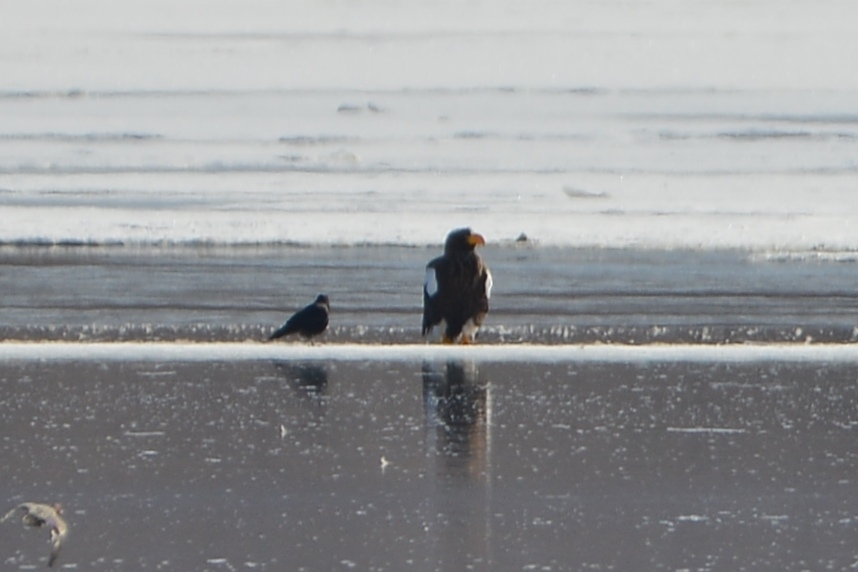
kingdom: Animalia
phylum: Chordata
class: Aves
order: Accipitriformes
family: Accipitridae
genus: Haliaeetus
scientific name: Haliaeetus pelagicus
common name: Steller's sea eagle
